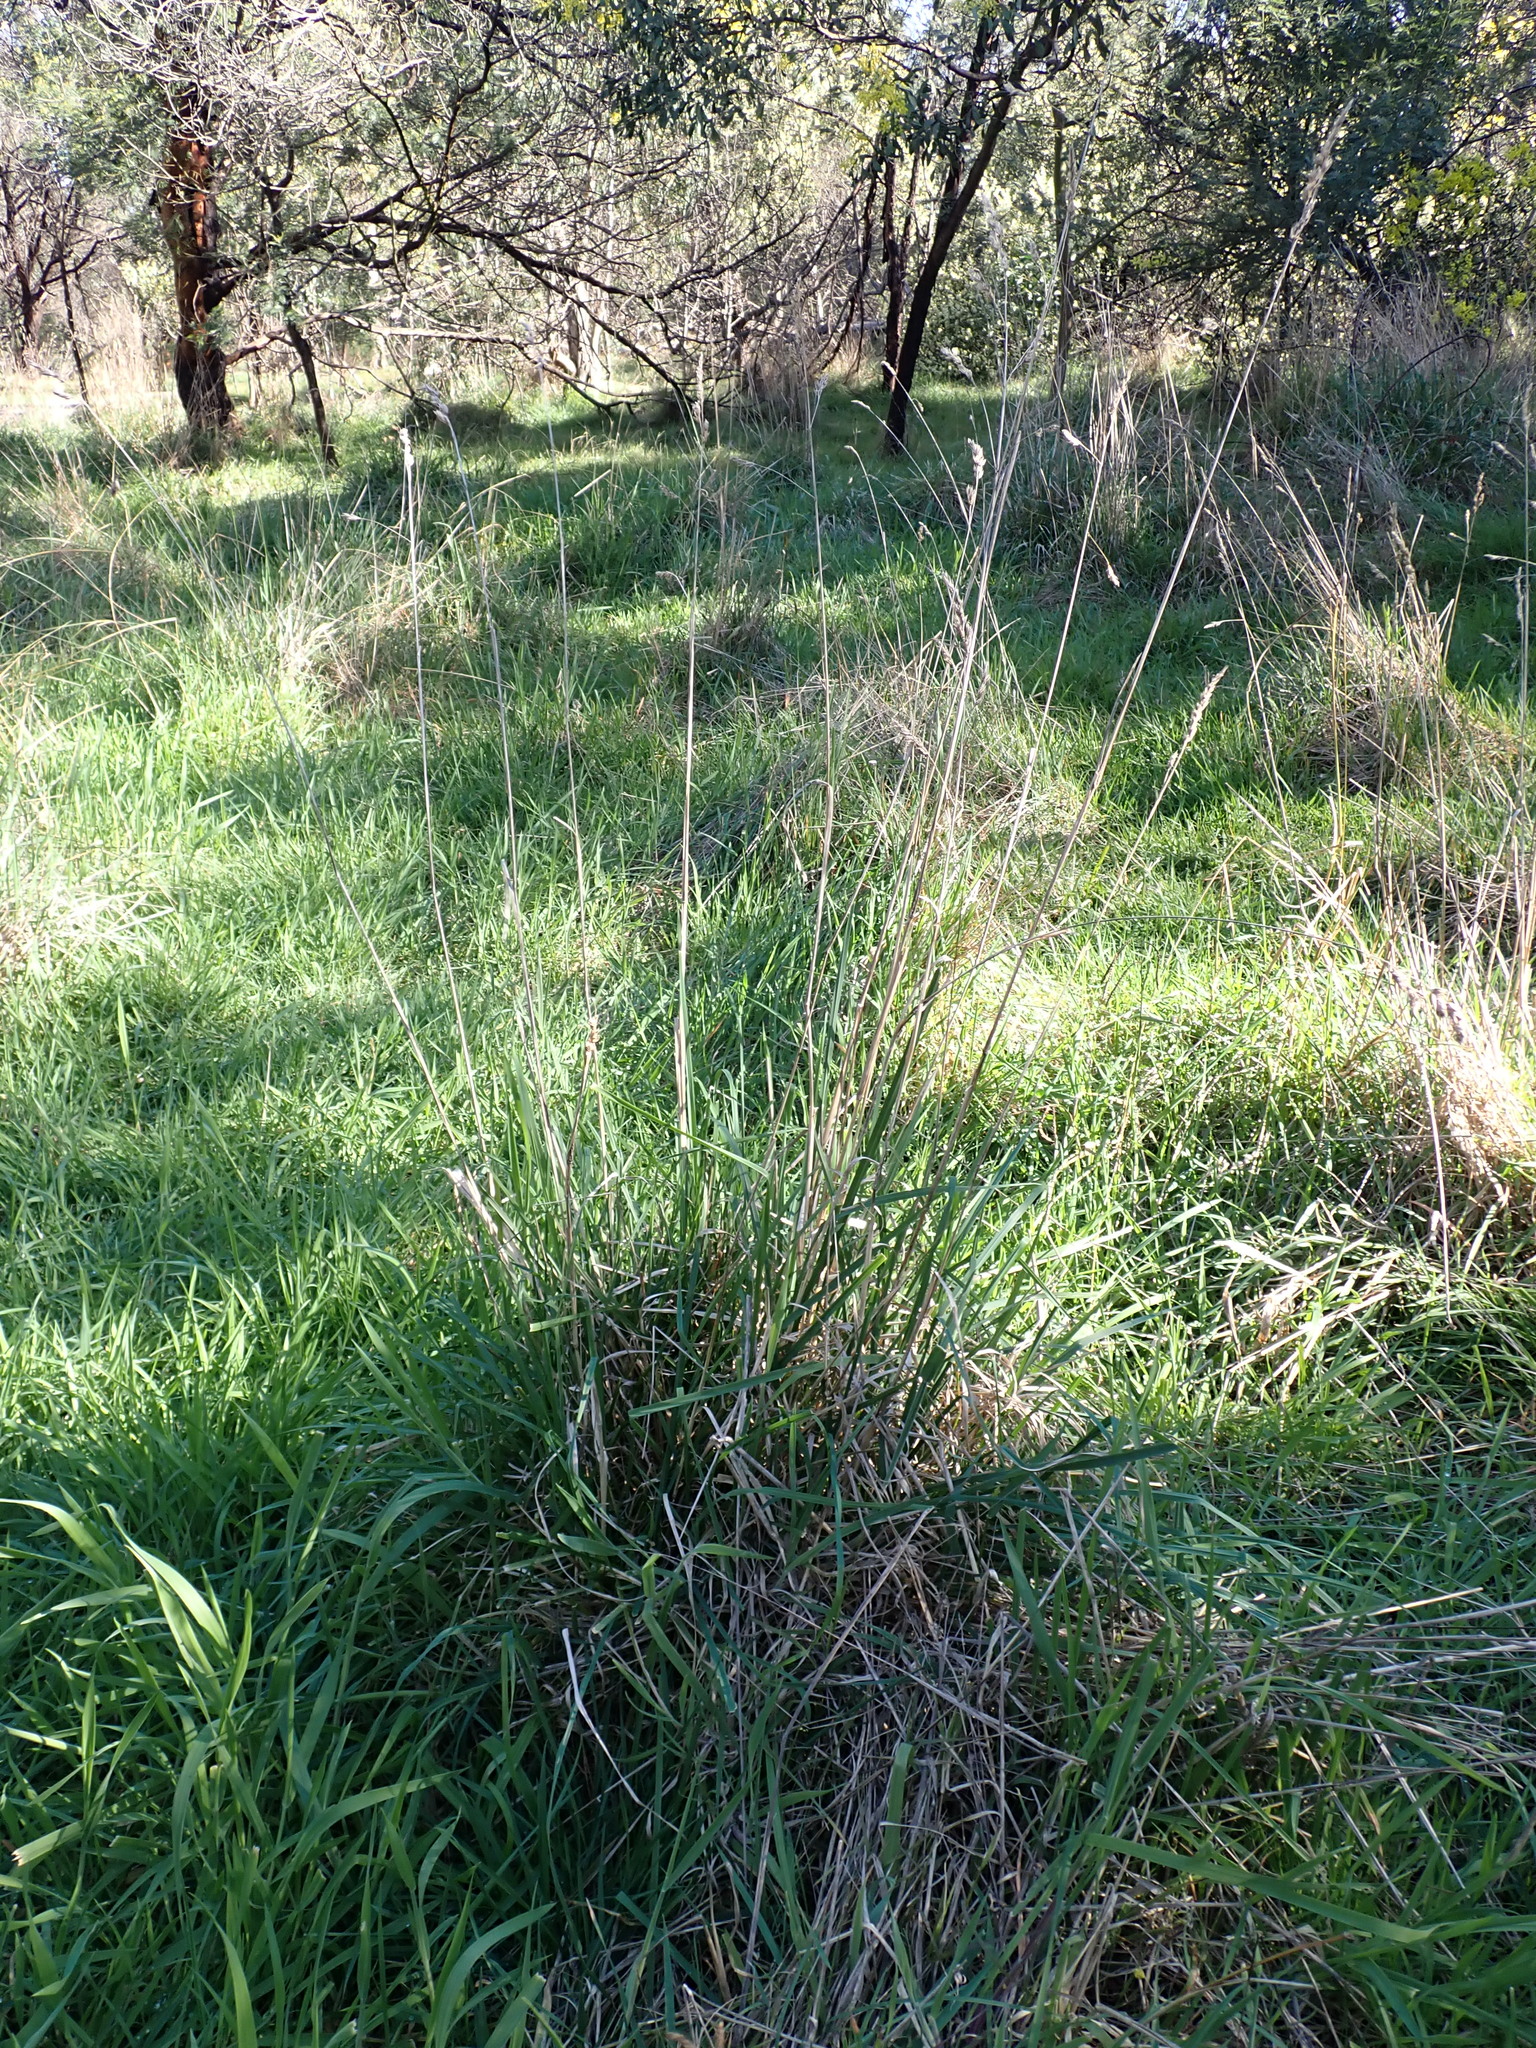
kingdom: Plantae
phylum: Tracheophyta
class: Liliopsida
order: Poales
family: Poaceae
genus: Dactylis
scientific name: Dactylis glomerata
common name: Orchardgrass
